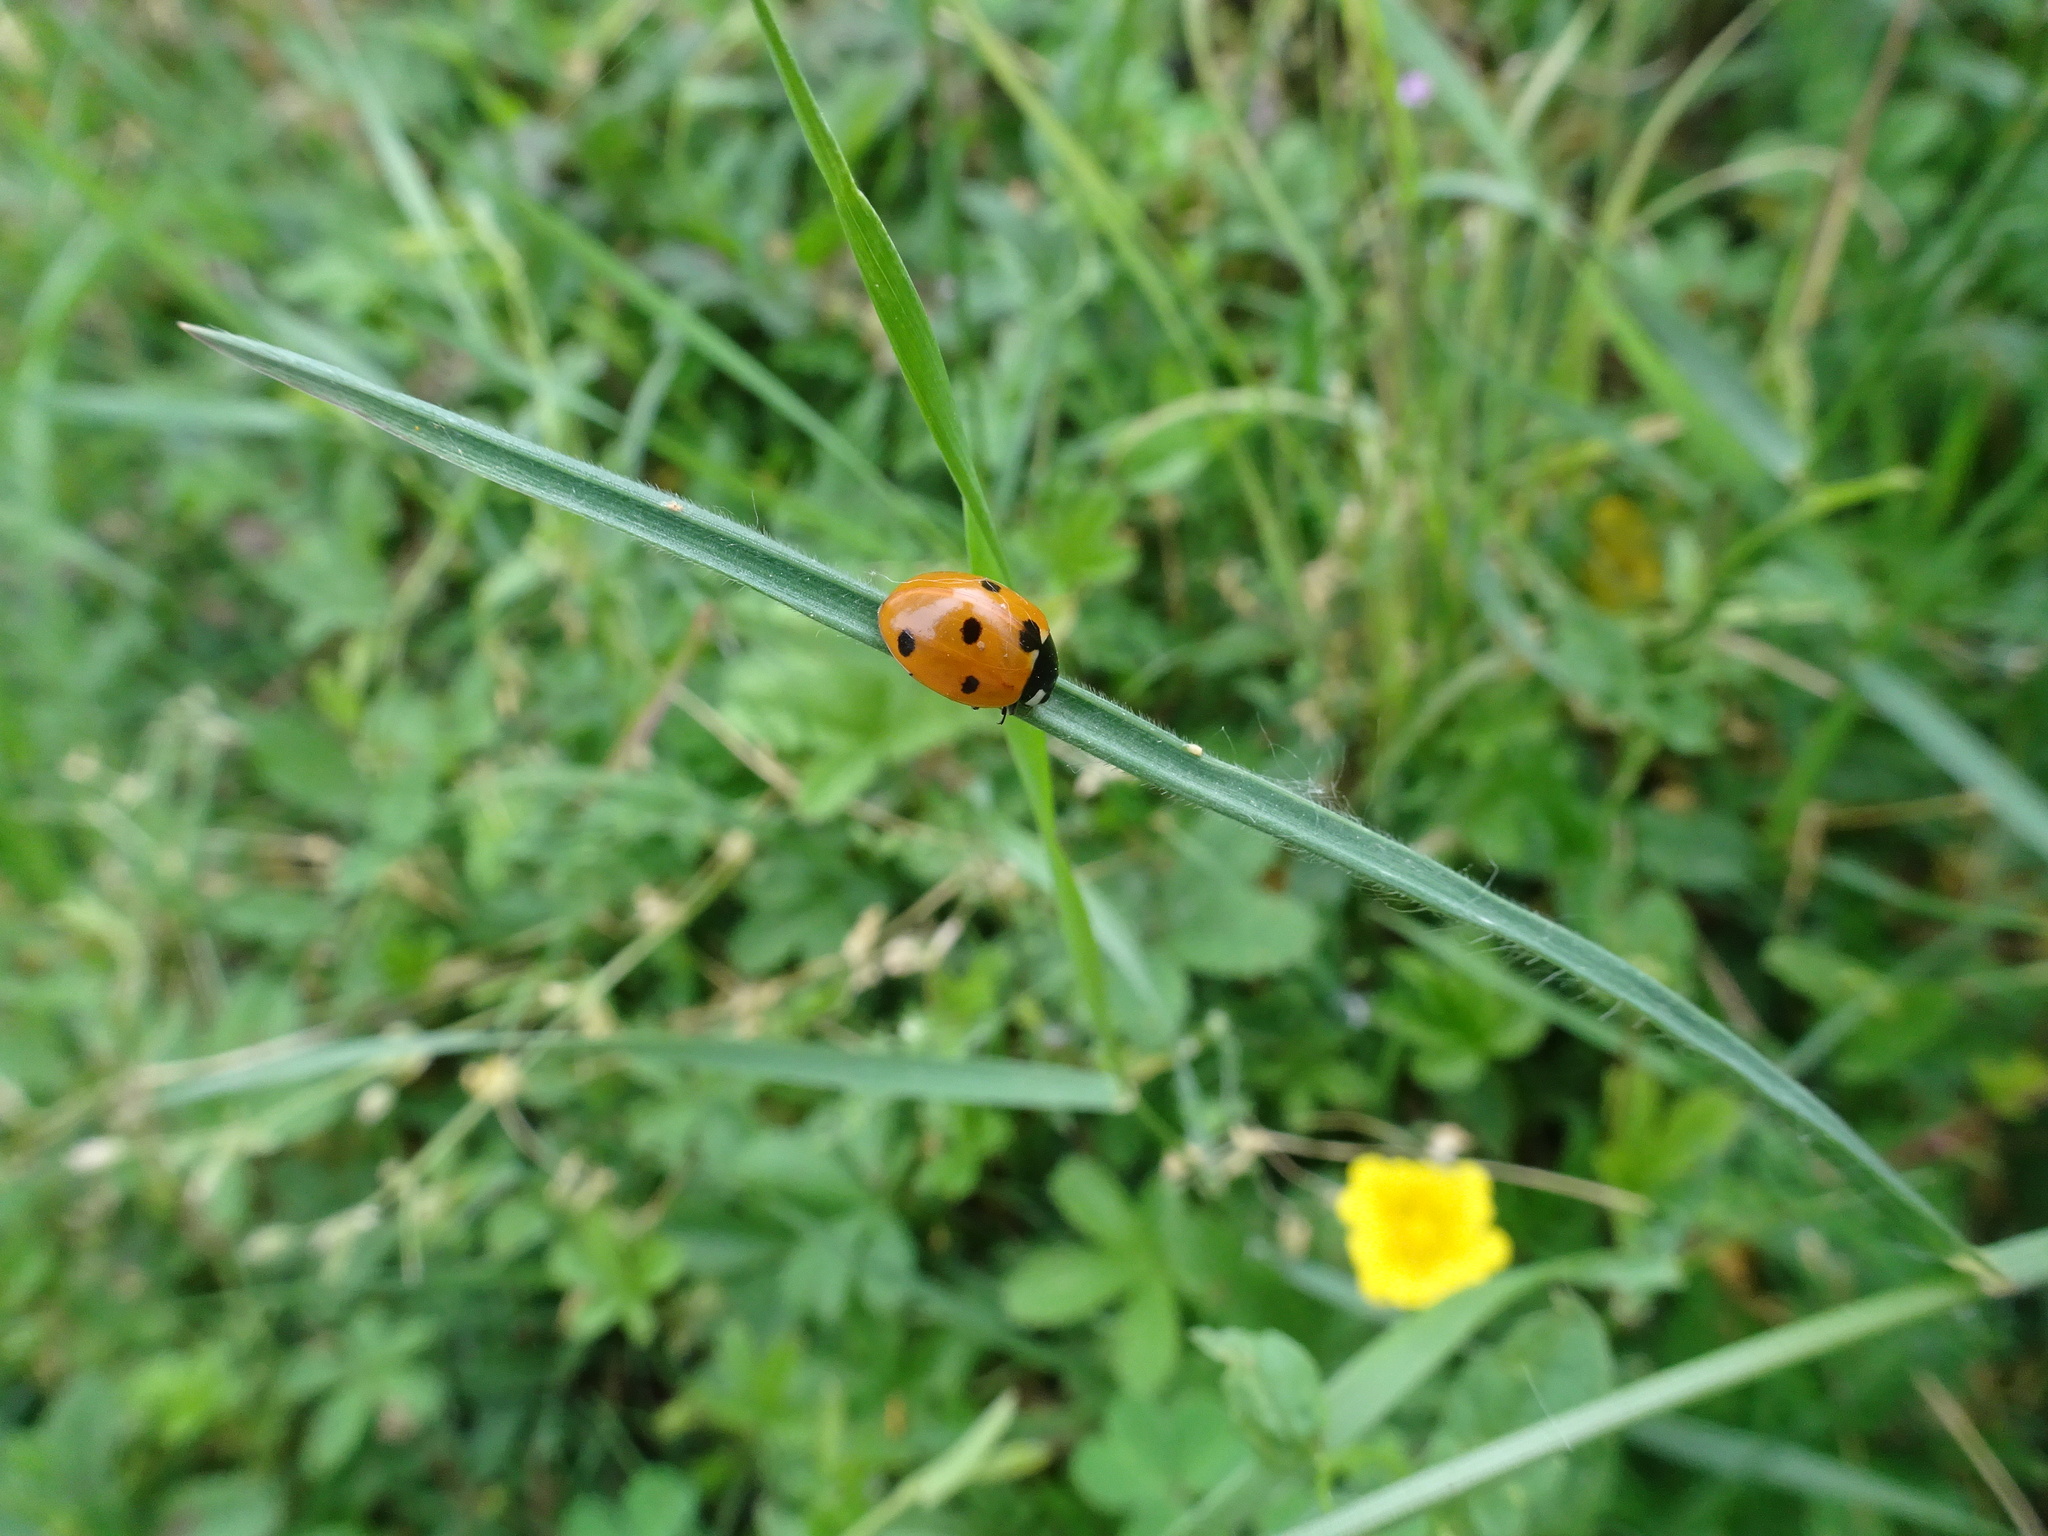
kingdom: Animalia
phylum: Arthropoda
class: Insecta
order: Coleoptera
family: Coccinellidae
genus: Coccinella
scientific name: Coccinella septempunctata
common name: Sevenspotted lady beetle
